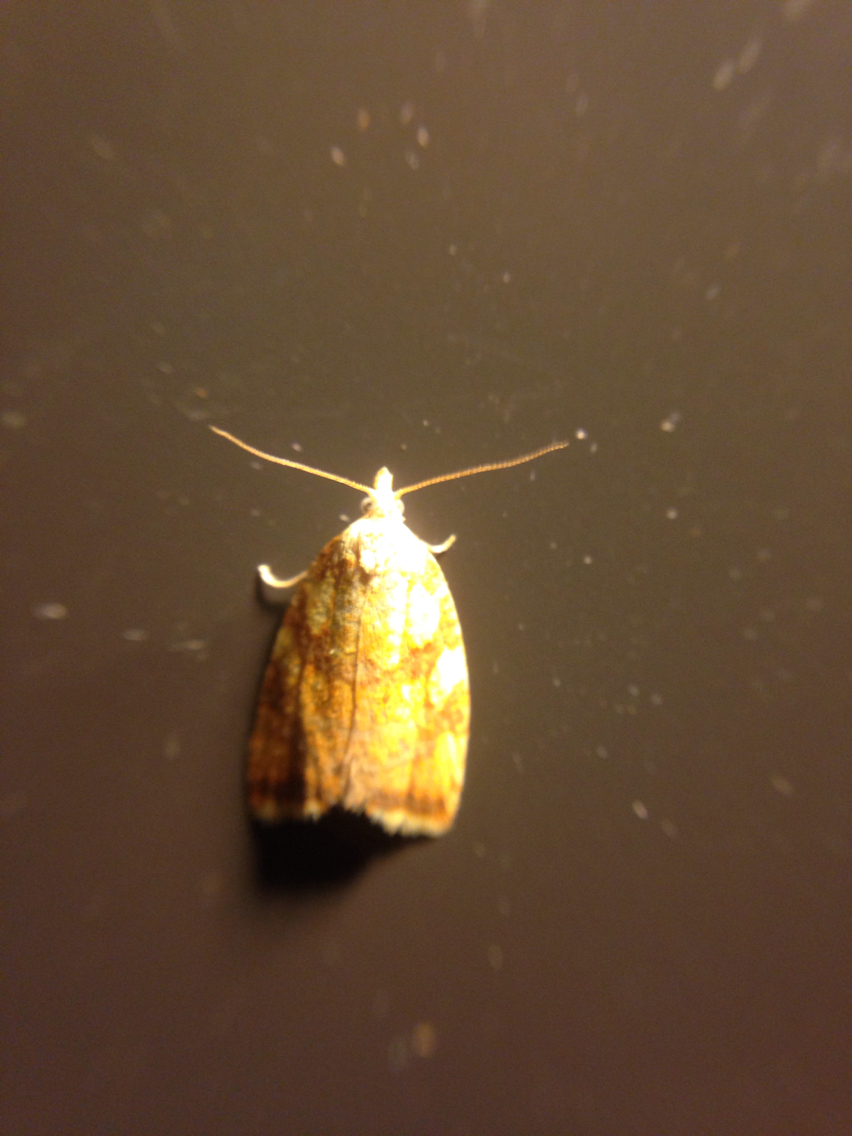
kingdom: Animalia
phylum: Arthropoda
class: Insecta
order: Lepidoptera
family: Tortricidae
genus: Acleris
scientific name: Acleris albicomana
